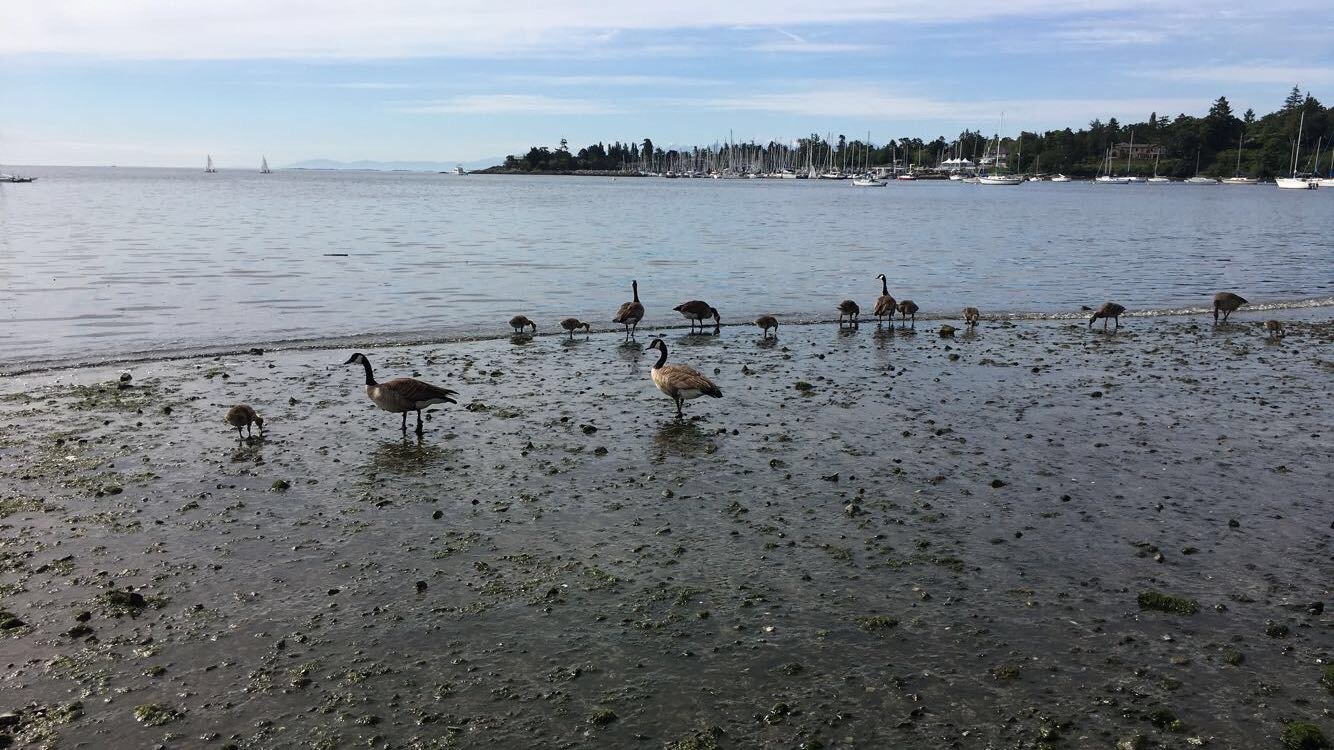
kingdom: Animalia
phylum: Chordata
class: Aves
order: Anseriformes
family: Anatidae
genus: Branta
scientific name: Branta canadensis
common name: Canada goose
